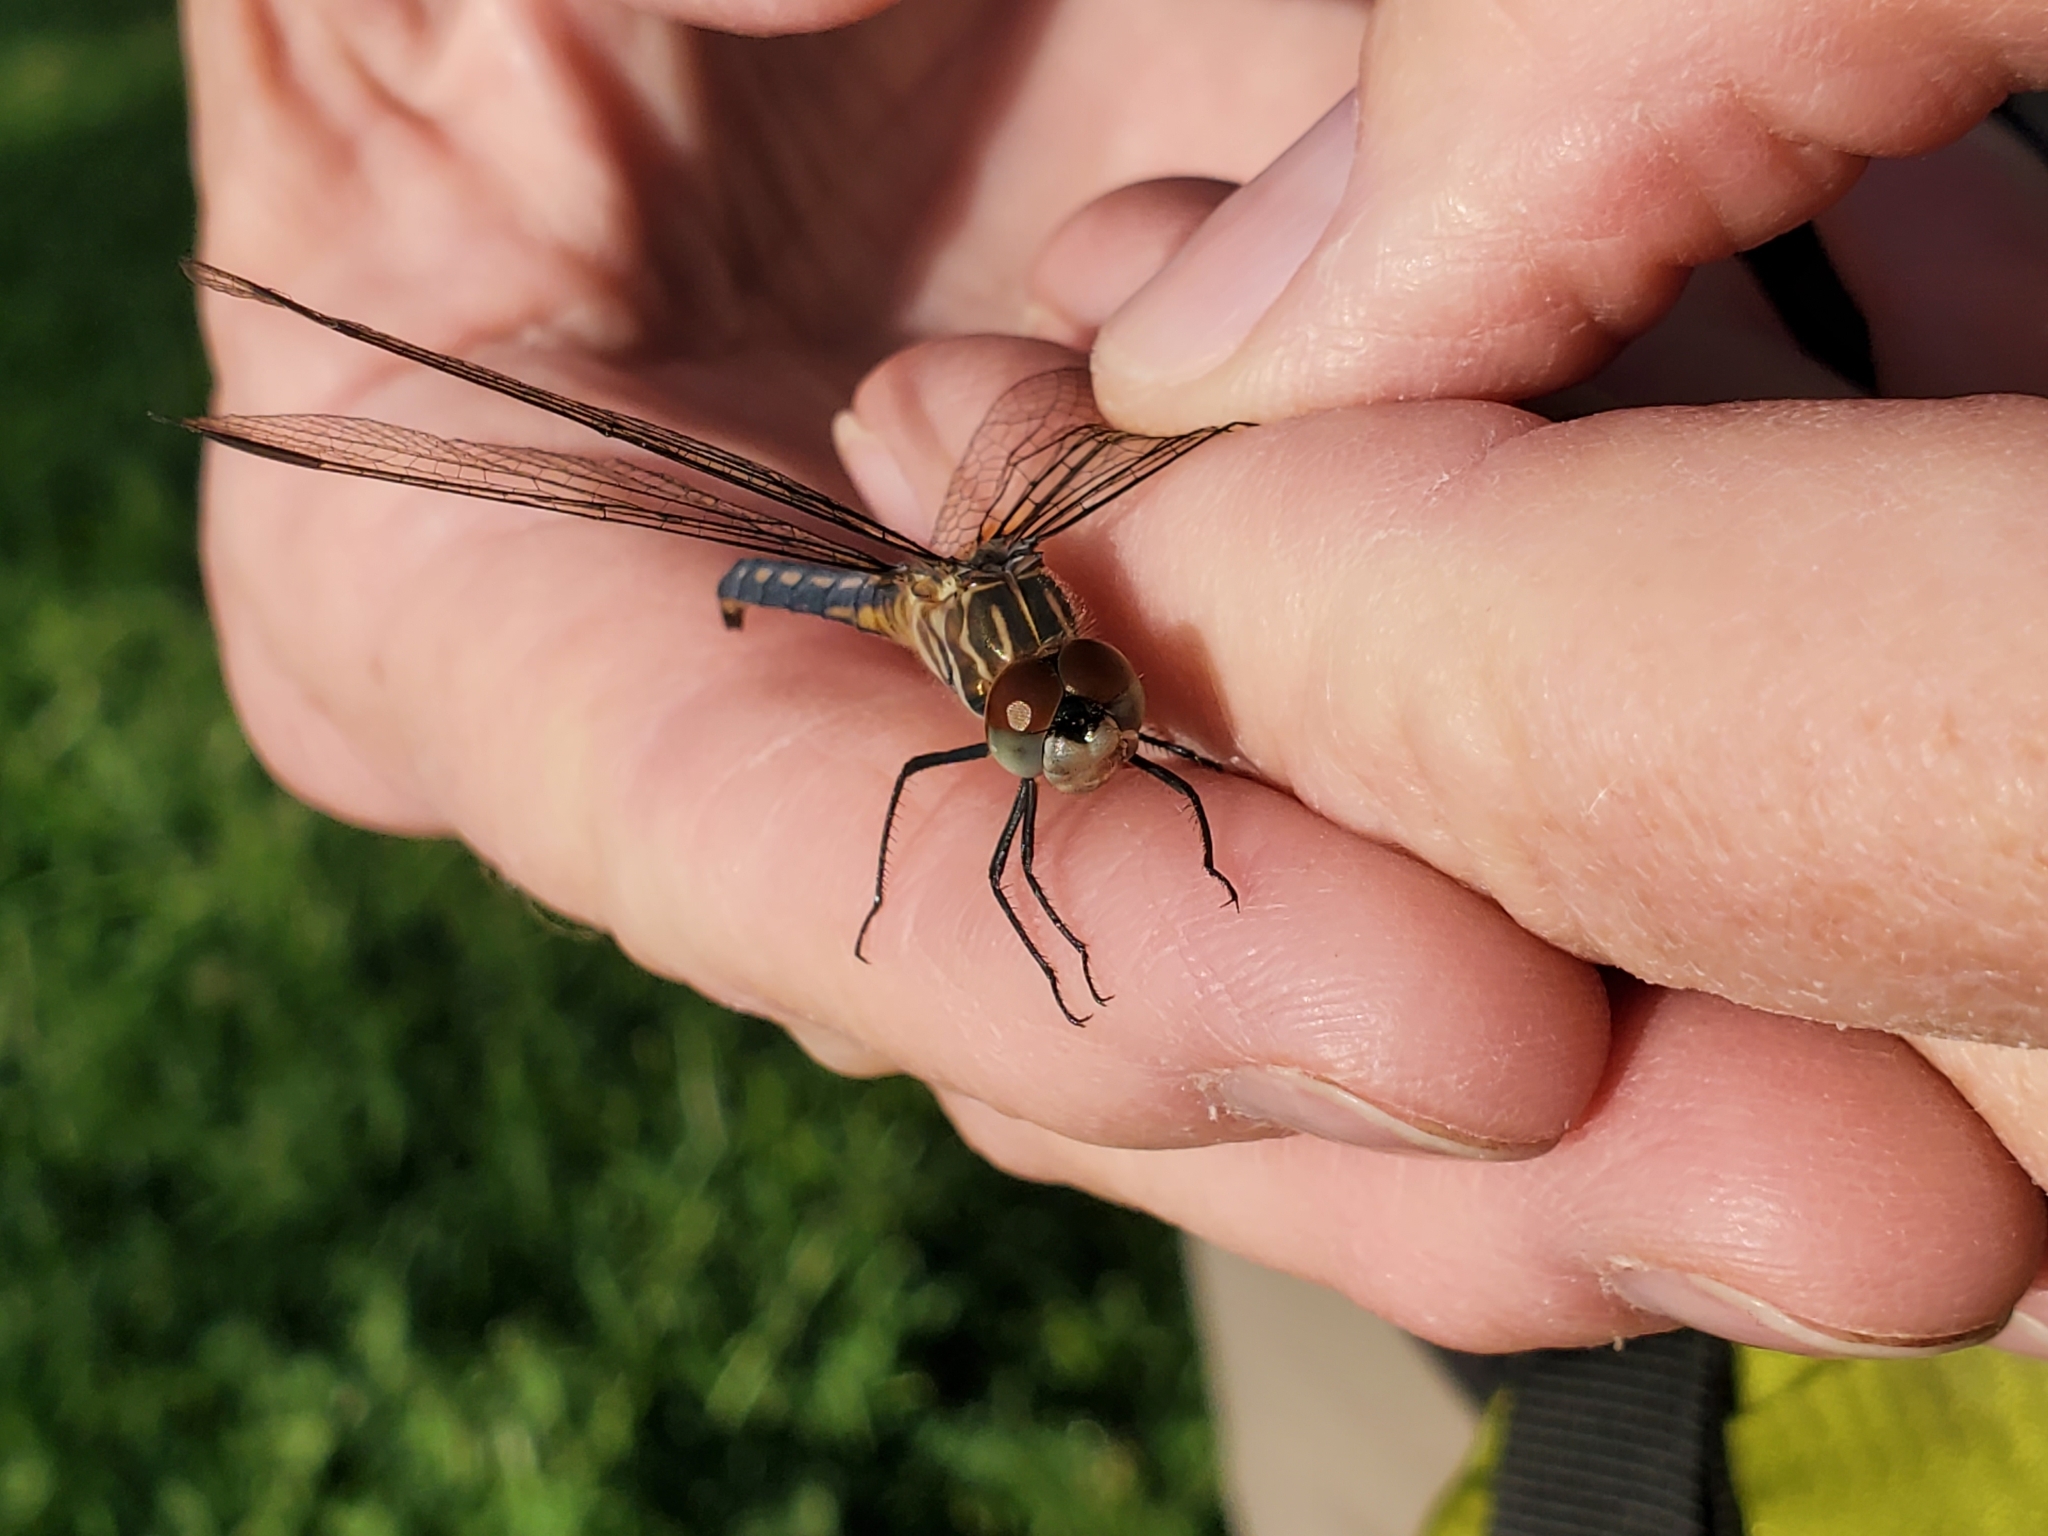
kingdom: Animalia
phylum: Arthropoda
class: Insecta
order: Odonata
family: Libellulidae
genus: Pachydiplax
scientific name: Pachydiplax longipennis
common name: Blue dasher
